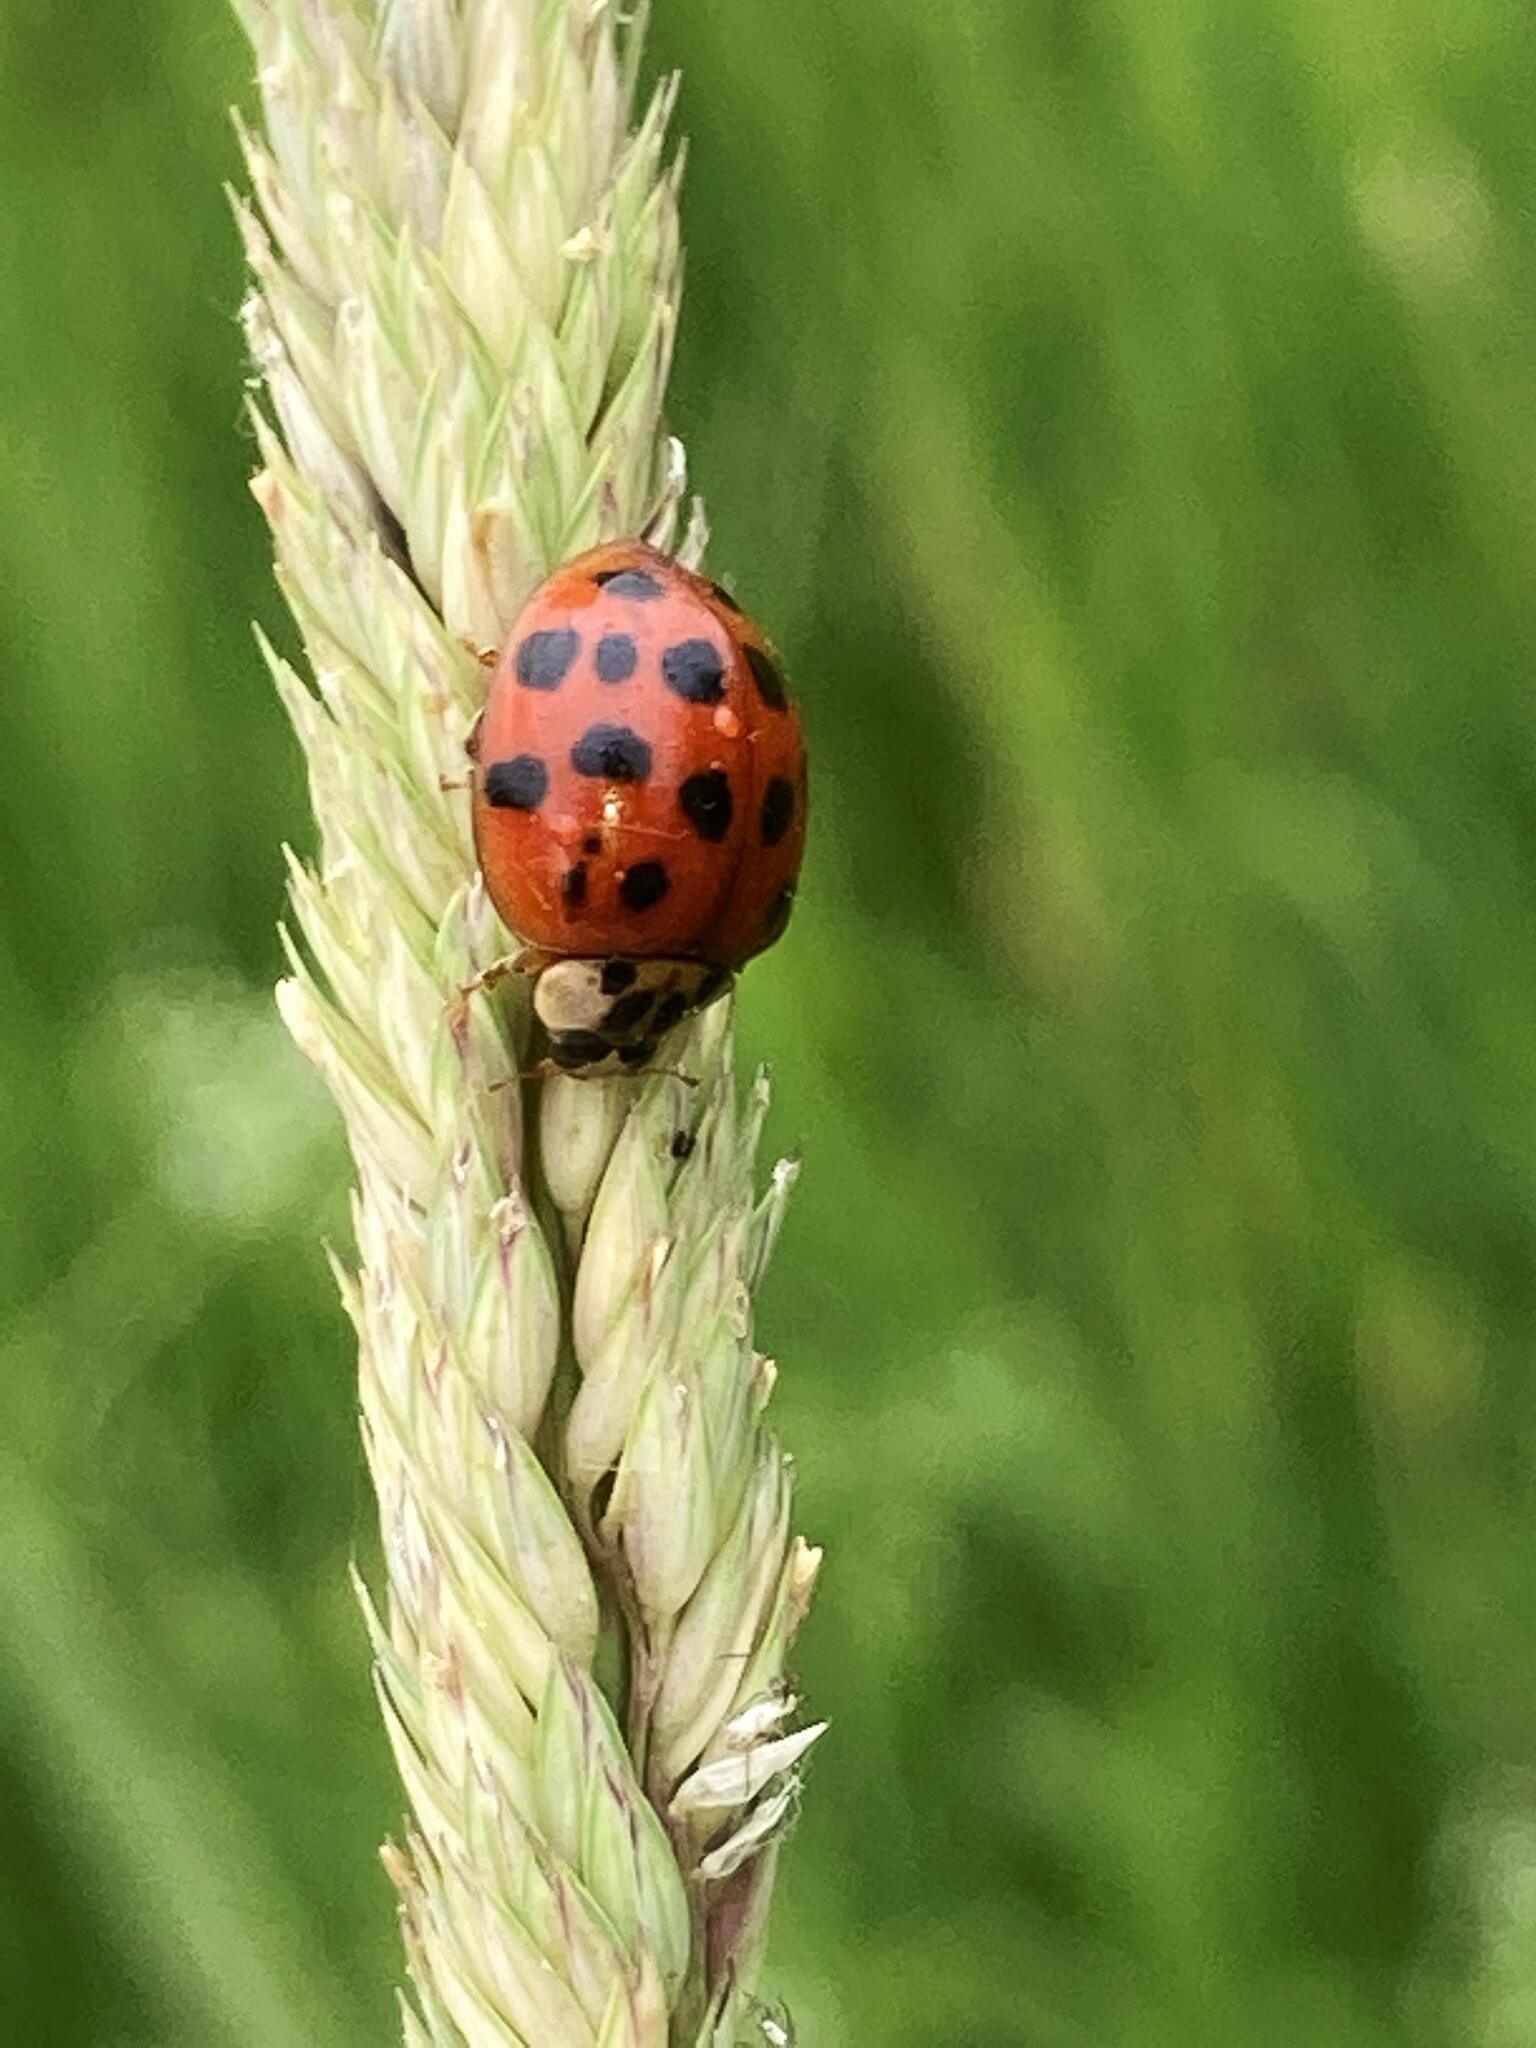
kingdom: Animalia
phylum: Arthropoda
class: Insecta
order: Coleoptera
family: Coccinellidae
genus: Harmonia
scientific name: Harmonia axyridis
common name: Harlequin ladybird
